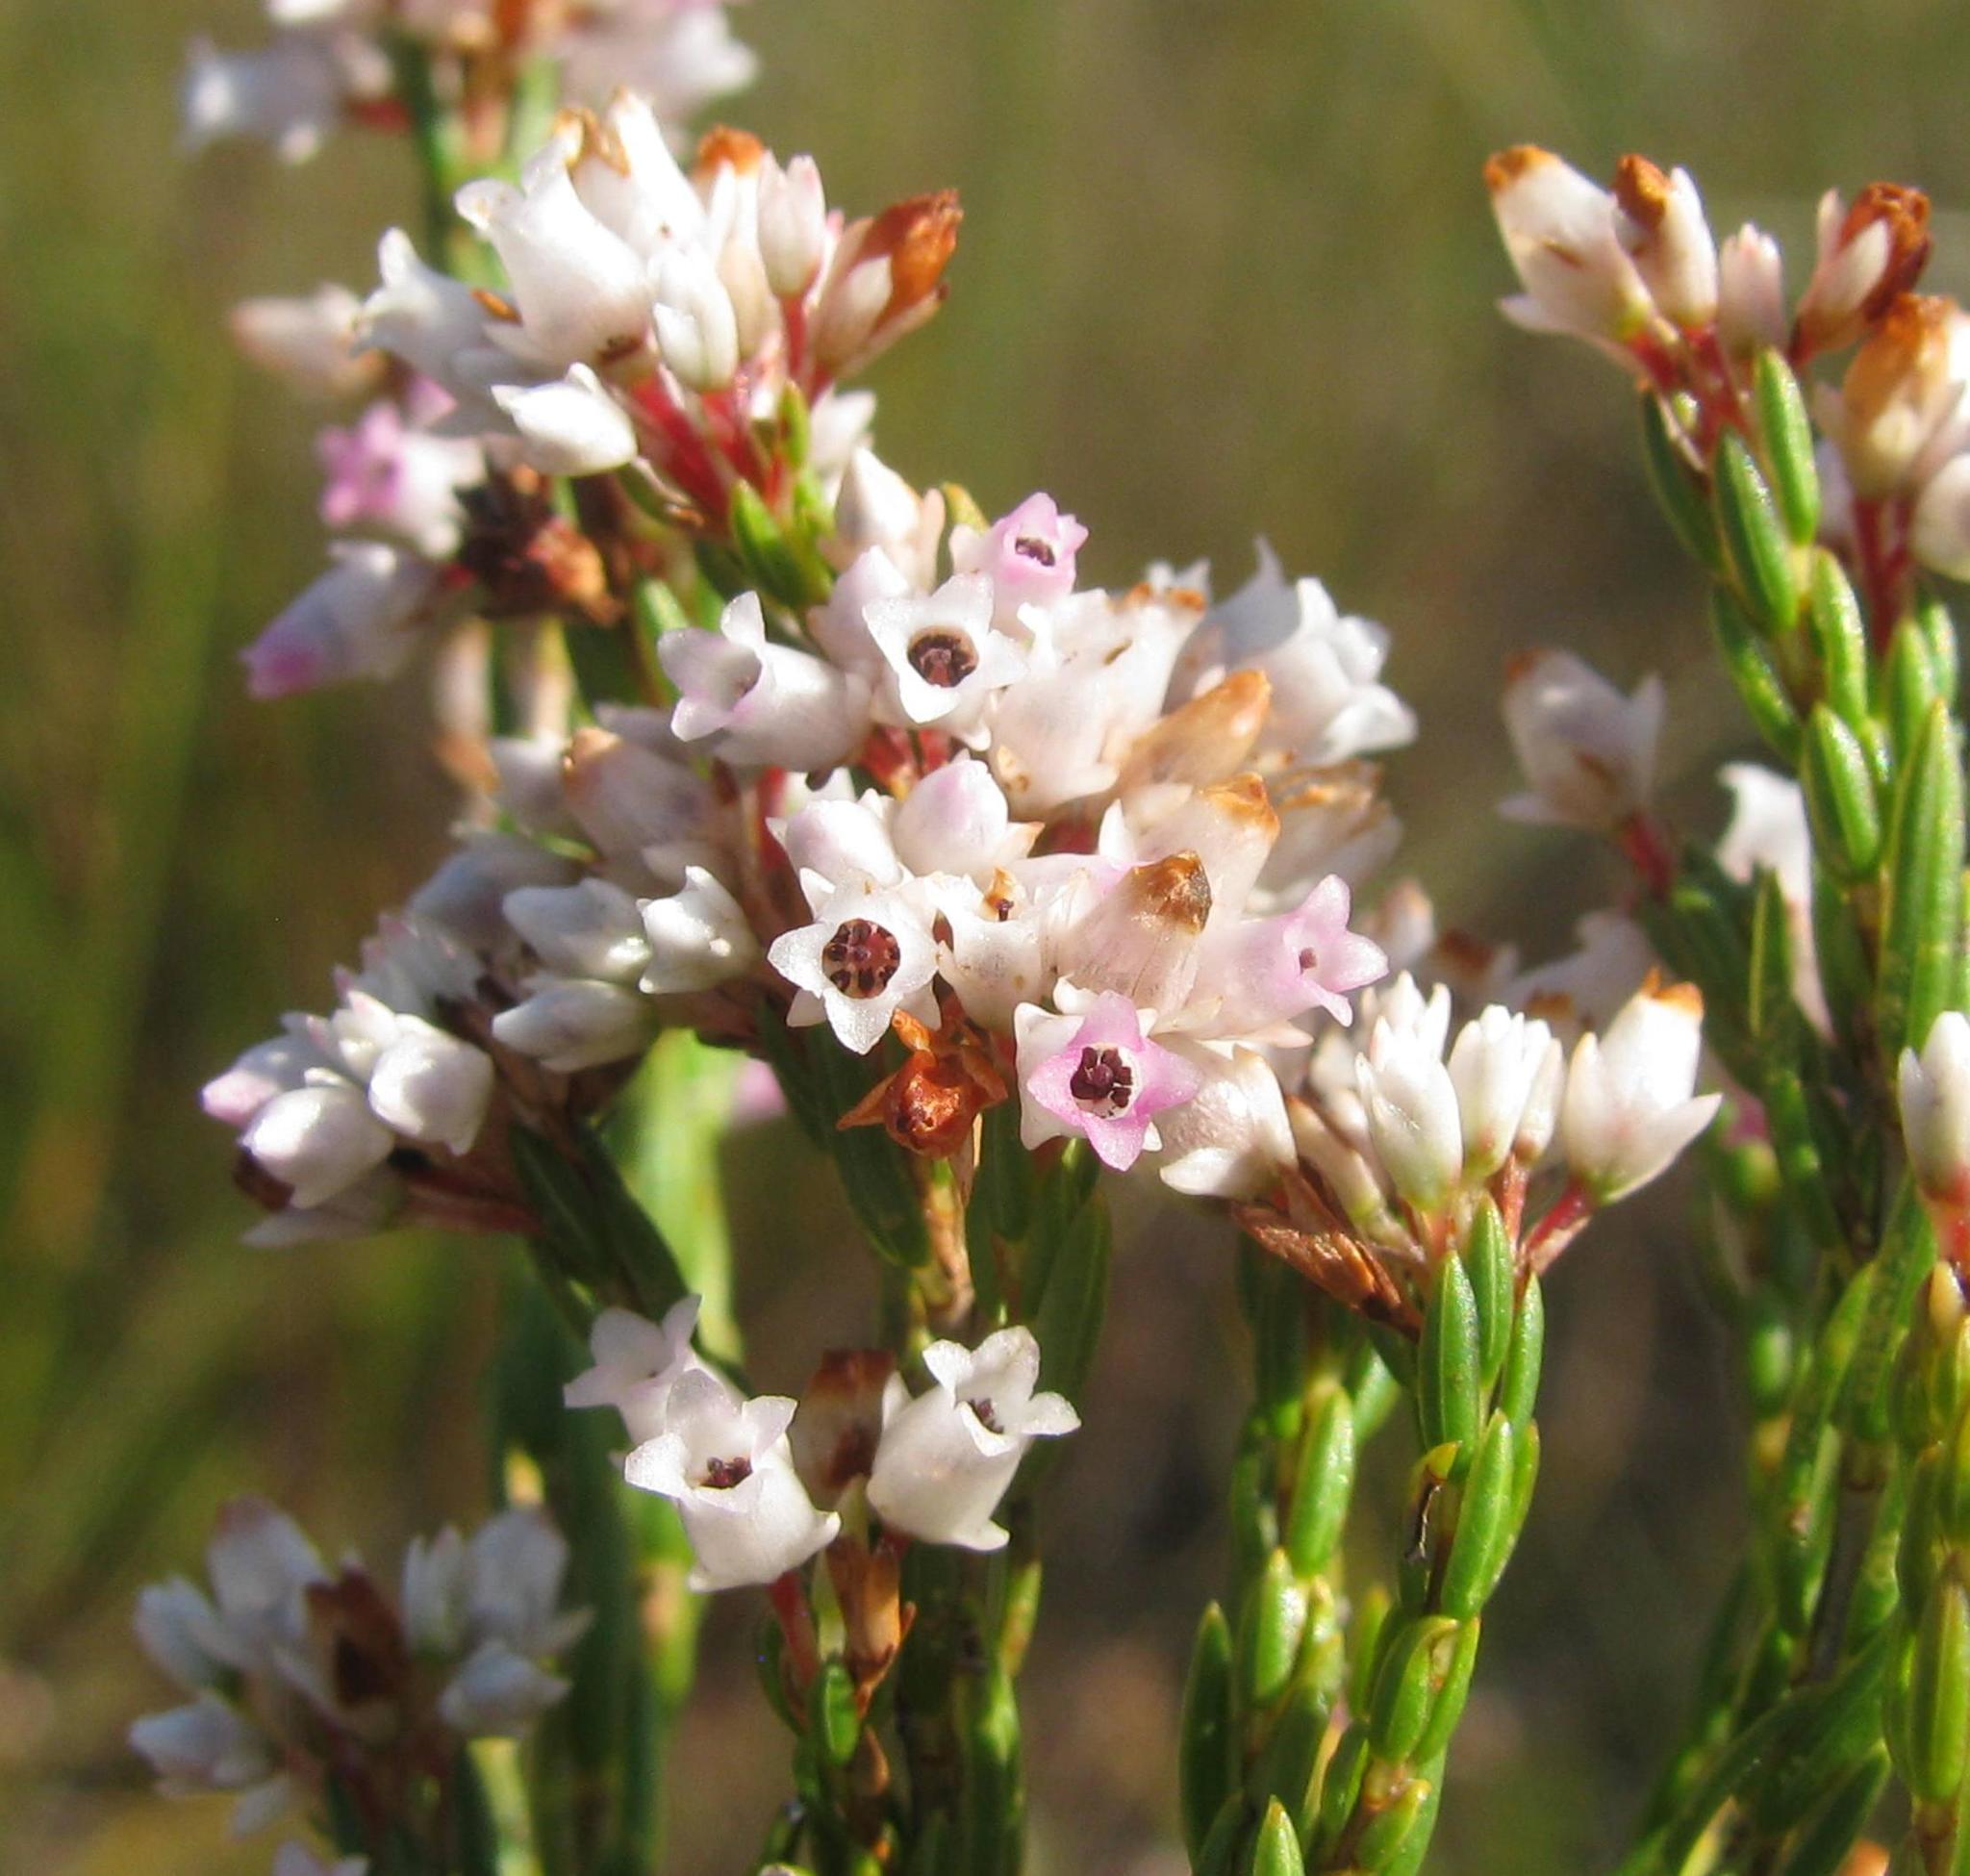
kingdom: Plantae
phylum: Tracheophyta
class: Magnoliopsida
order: Ericales
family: Ericaceae
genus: Erica
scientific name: Erica articularis
